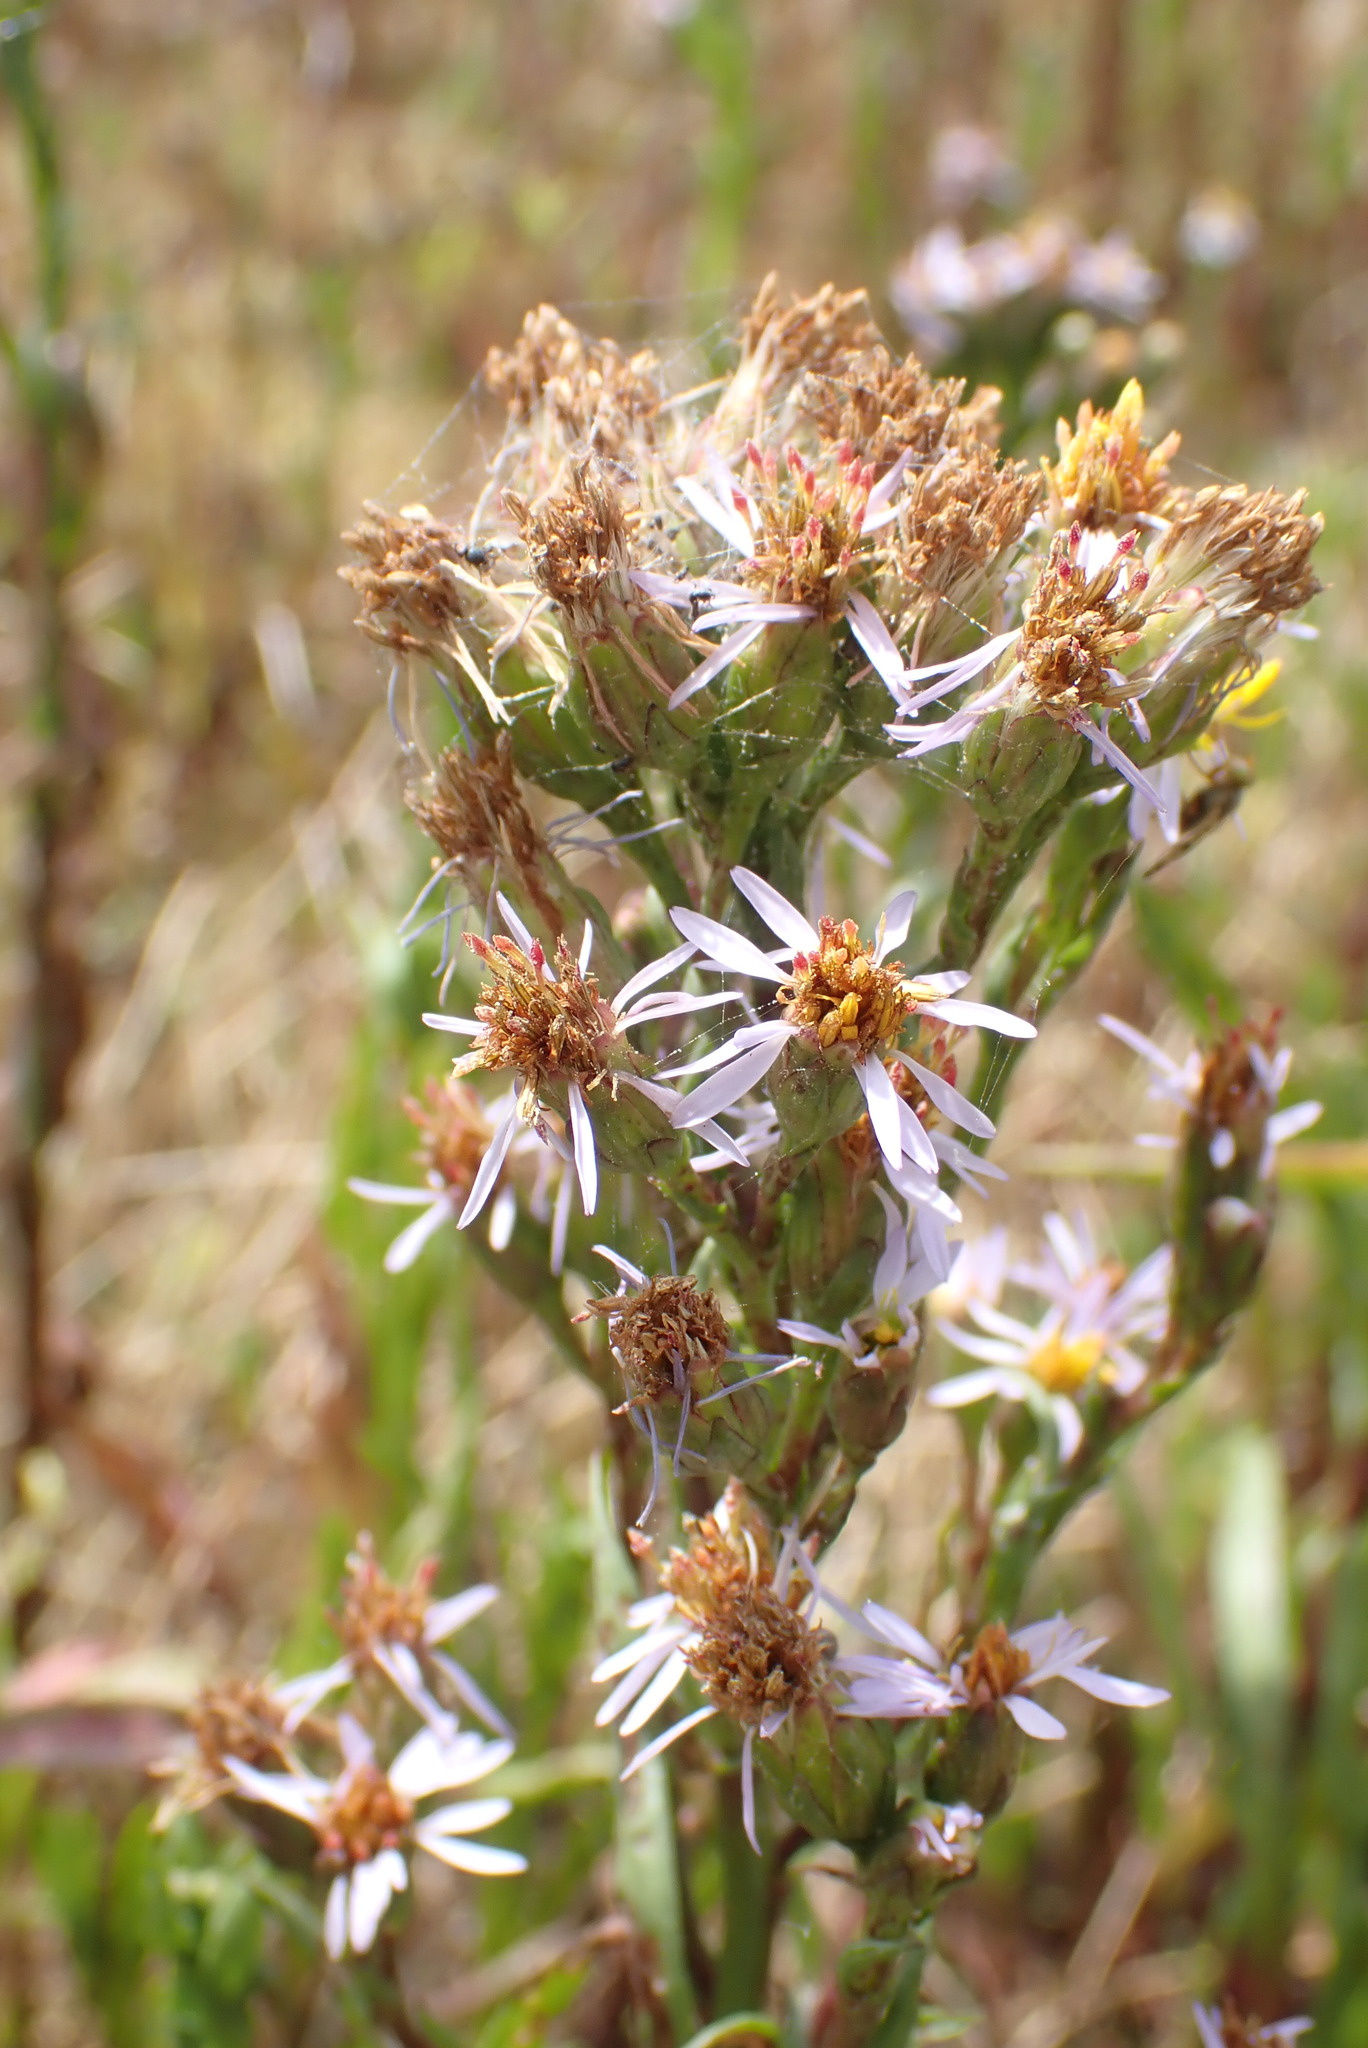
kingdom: Plantae
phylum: Tracheophyta
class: Magnoliopsida
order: Asterales
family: Asteraceae
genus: Tripolium
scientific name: Tripolium pannonicum
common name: Sea aster
